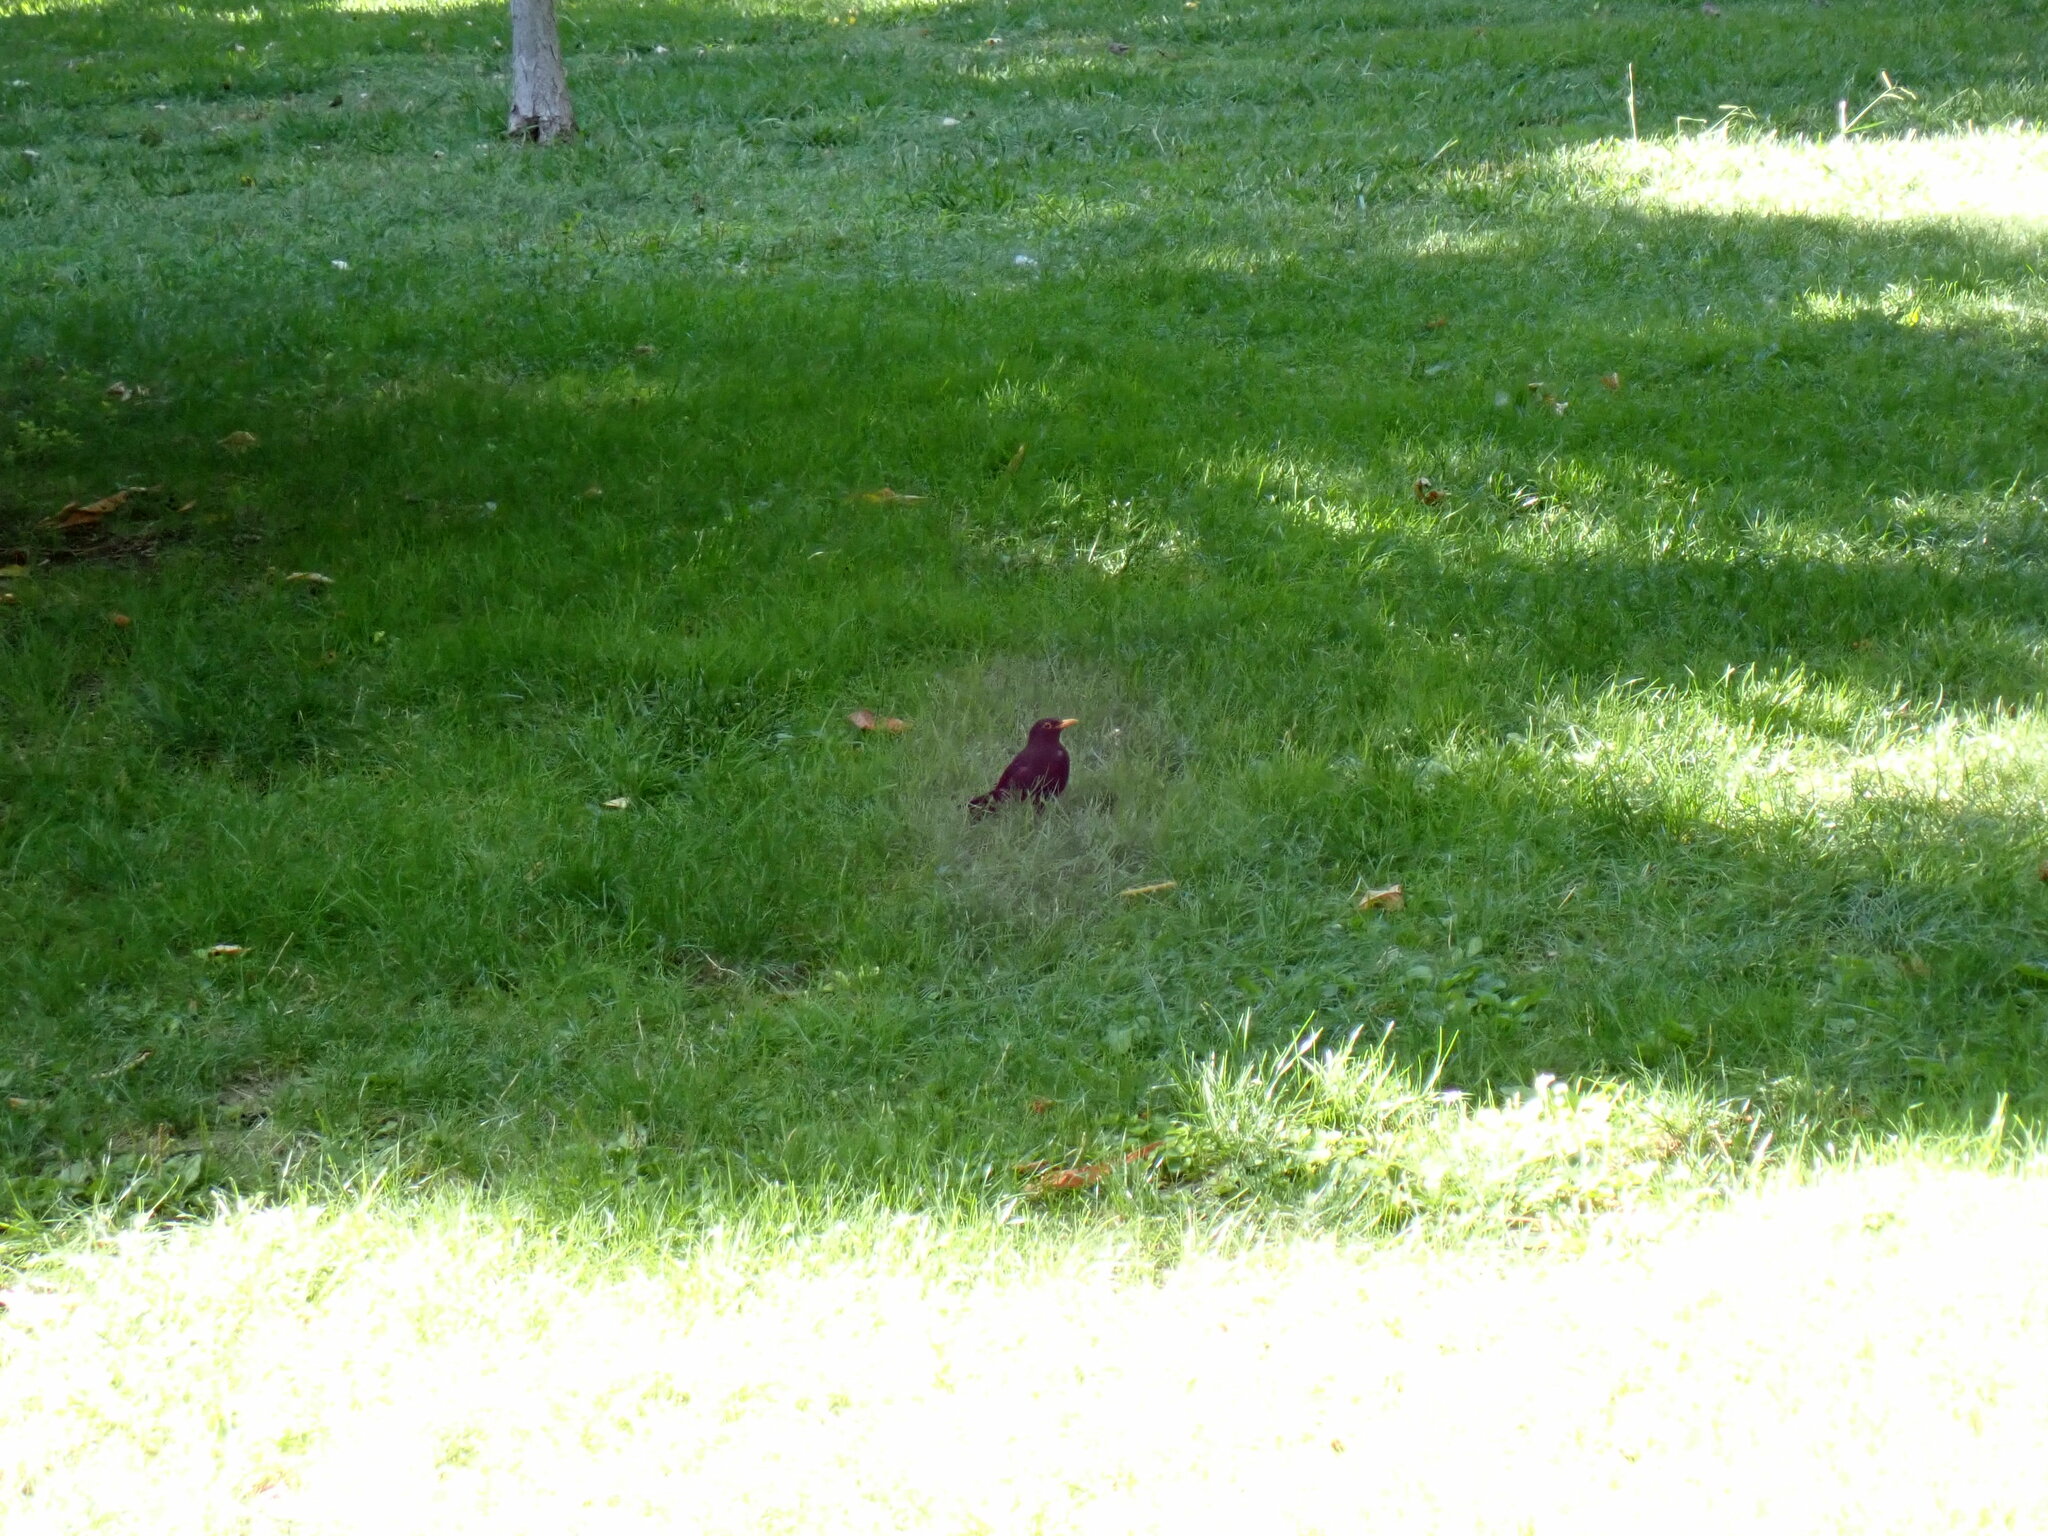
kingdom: Animalia
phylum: Chordata
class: Aves
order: Passeriformes
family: Turdidae
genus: Turdus
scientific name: Turdus merula
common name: Common blackbird
